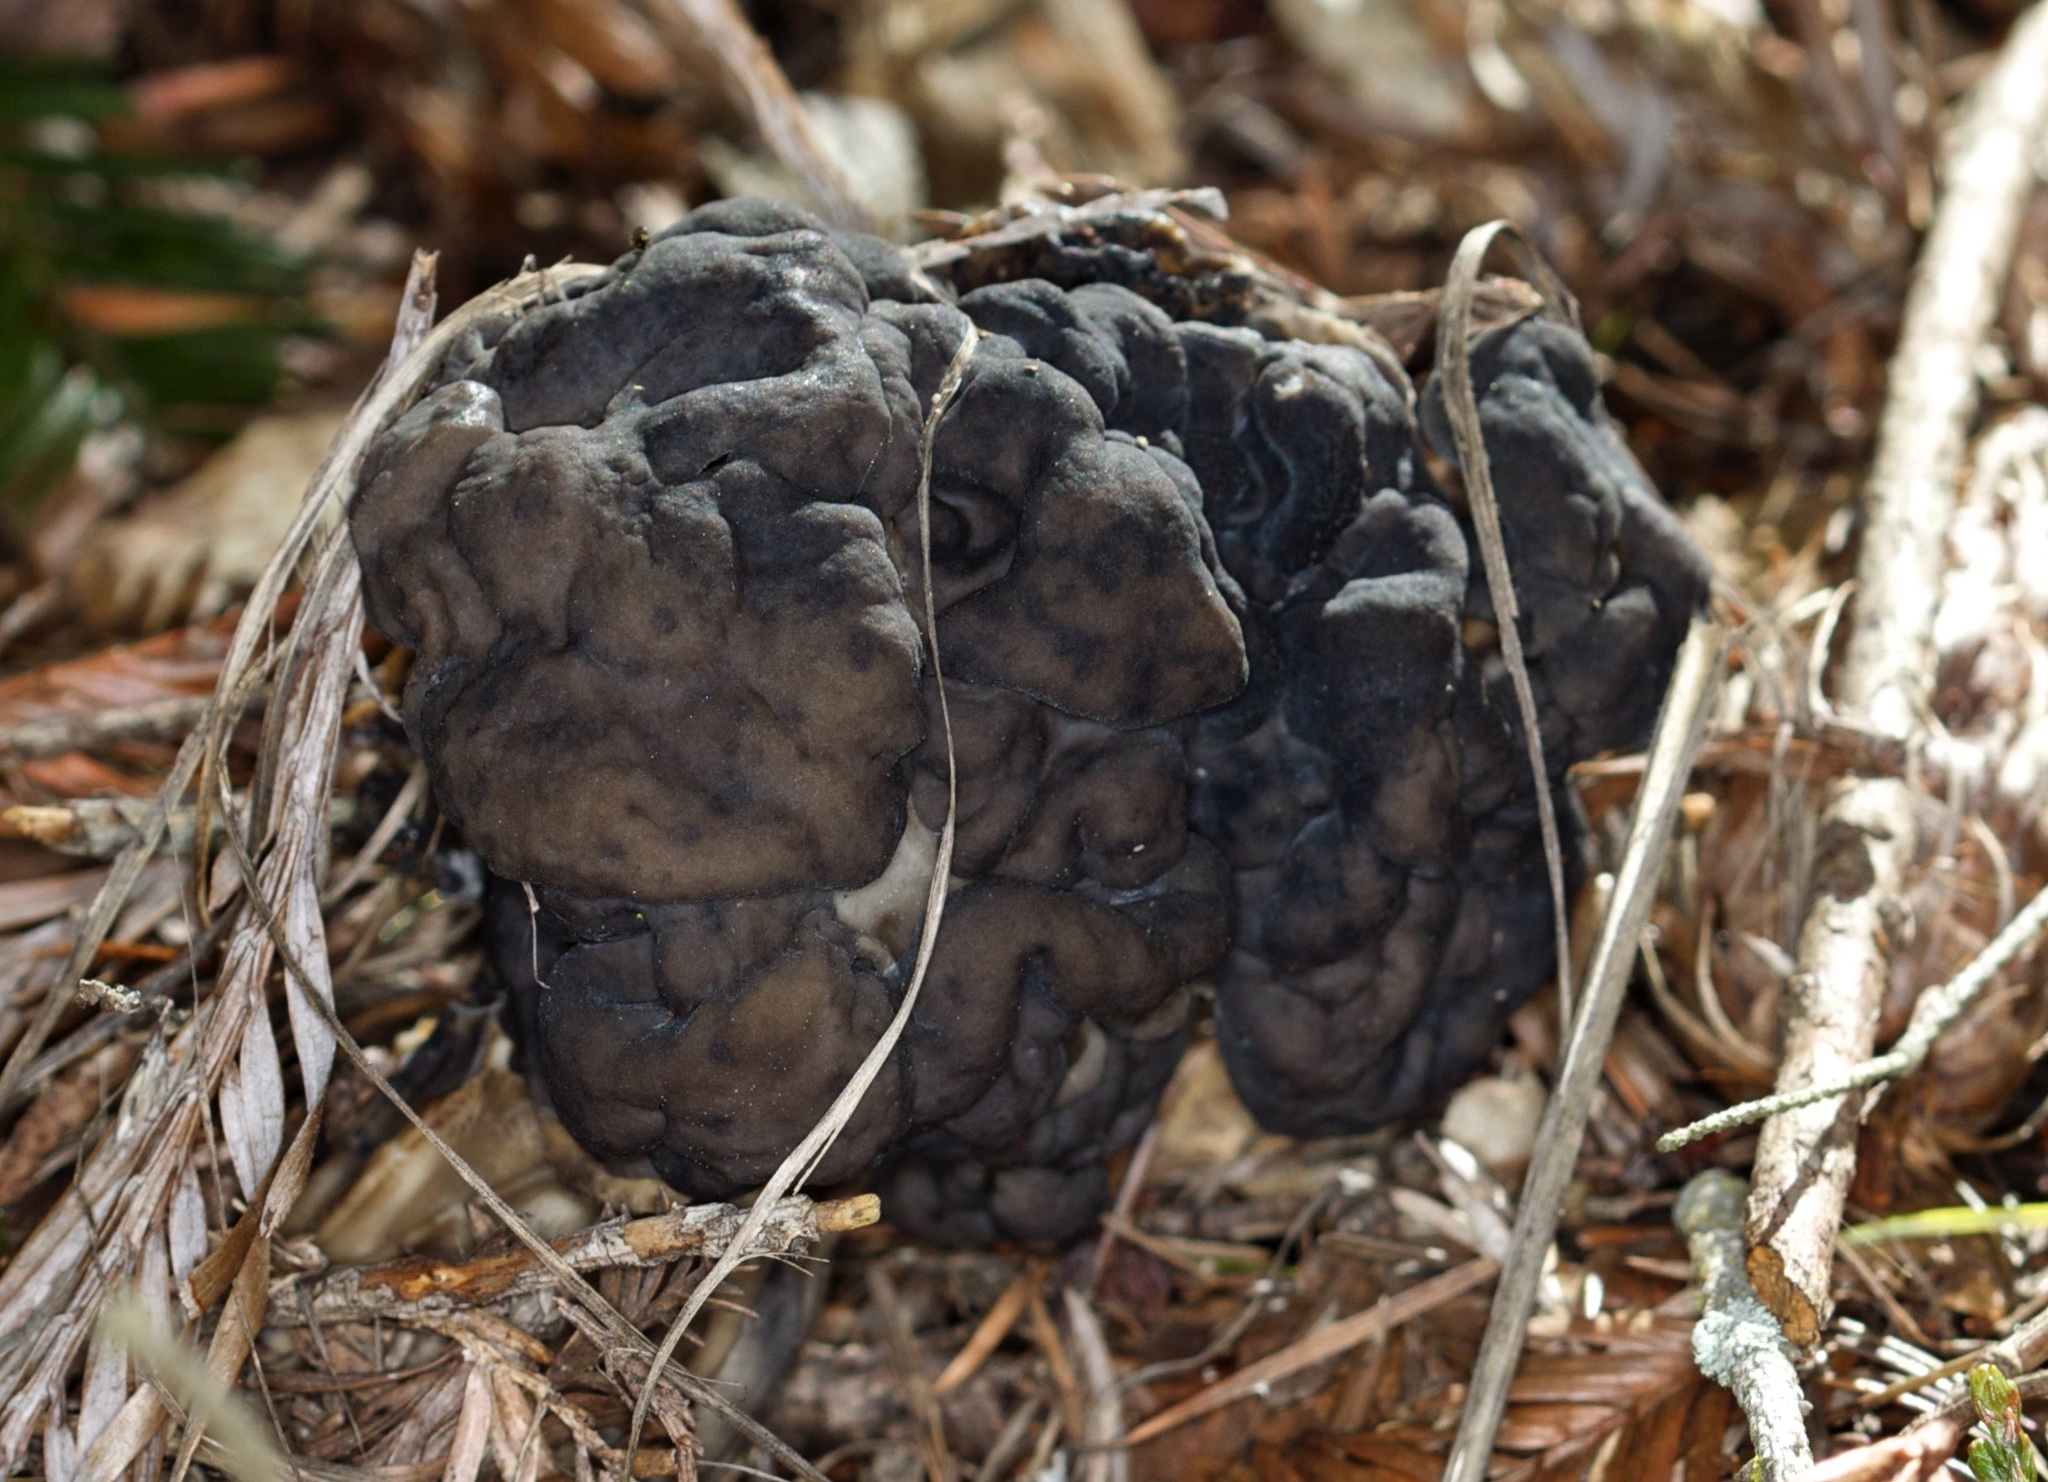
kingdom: Fungi
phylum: Ascomycota
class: Pezizomycetes
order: Pezizales
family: Helvellaceae
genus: Helvella
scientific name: Helvella vespertina
